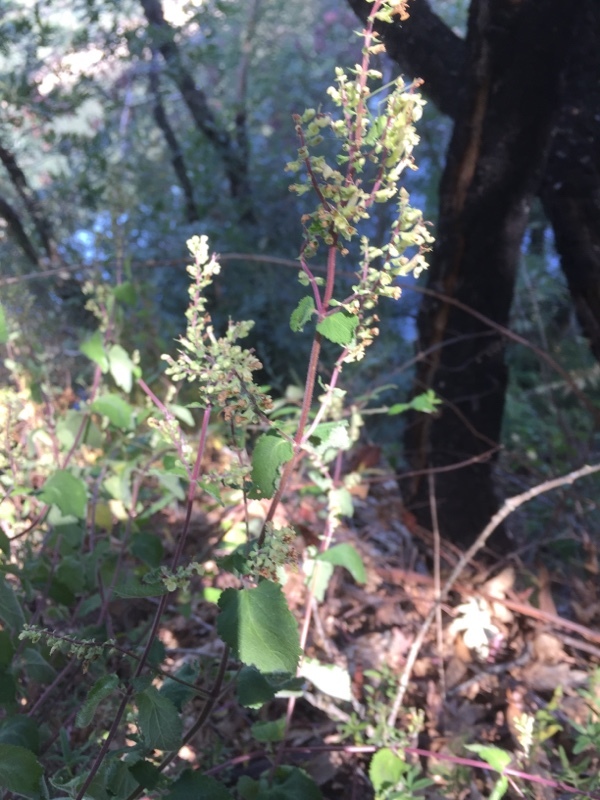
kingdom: Plantae
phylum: Tracheophyta
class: Magnoliopsida
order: Lamiales
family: Lamiaceae
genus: Teucrium
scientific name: Teucrium scorodonia
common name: Woodland germander
